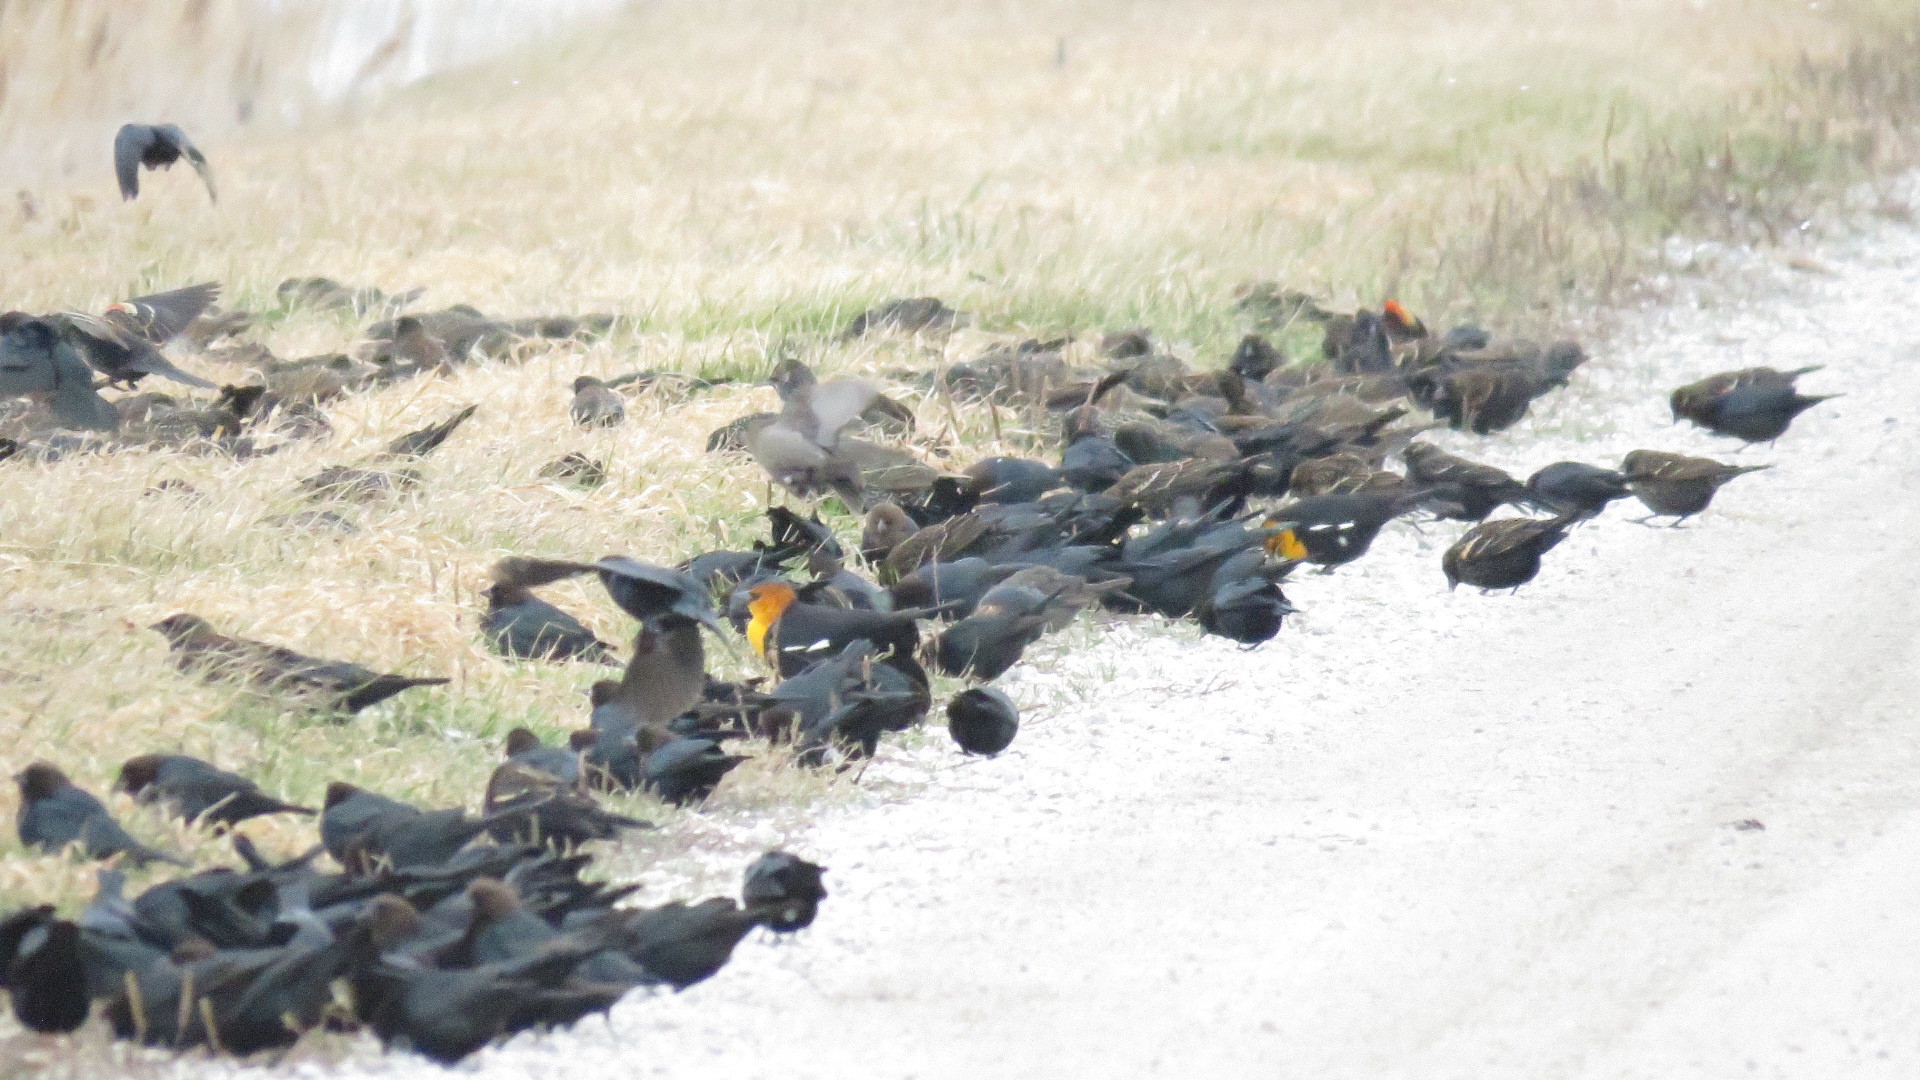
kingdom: Animalia
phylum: Chordata
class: Aves
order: Passeriformes
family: Icteridae
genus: Xanthocephalus
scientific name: Xanthocephalus xanthocephalus
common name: Yellow-headed blackbird
